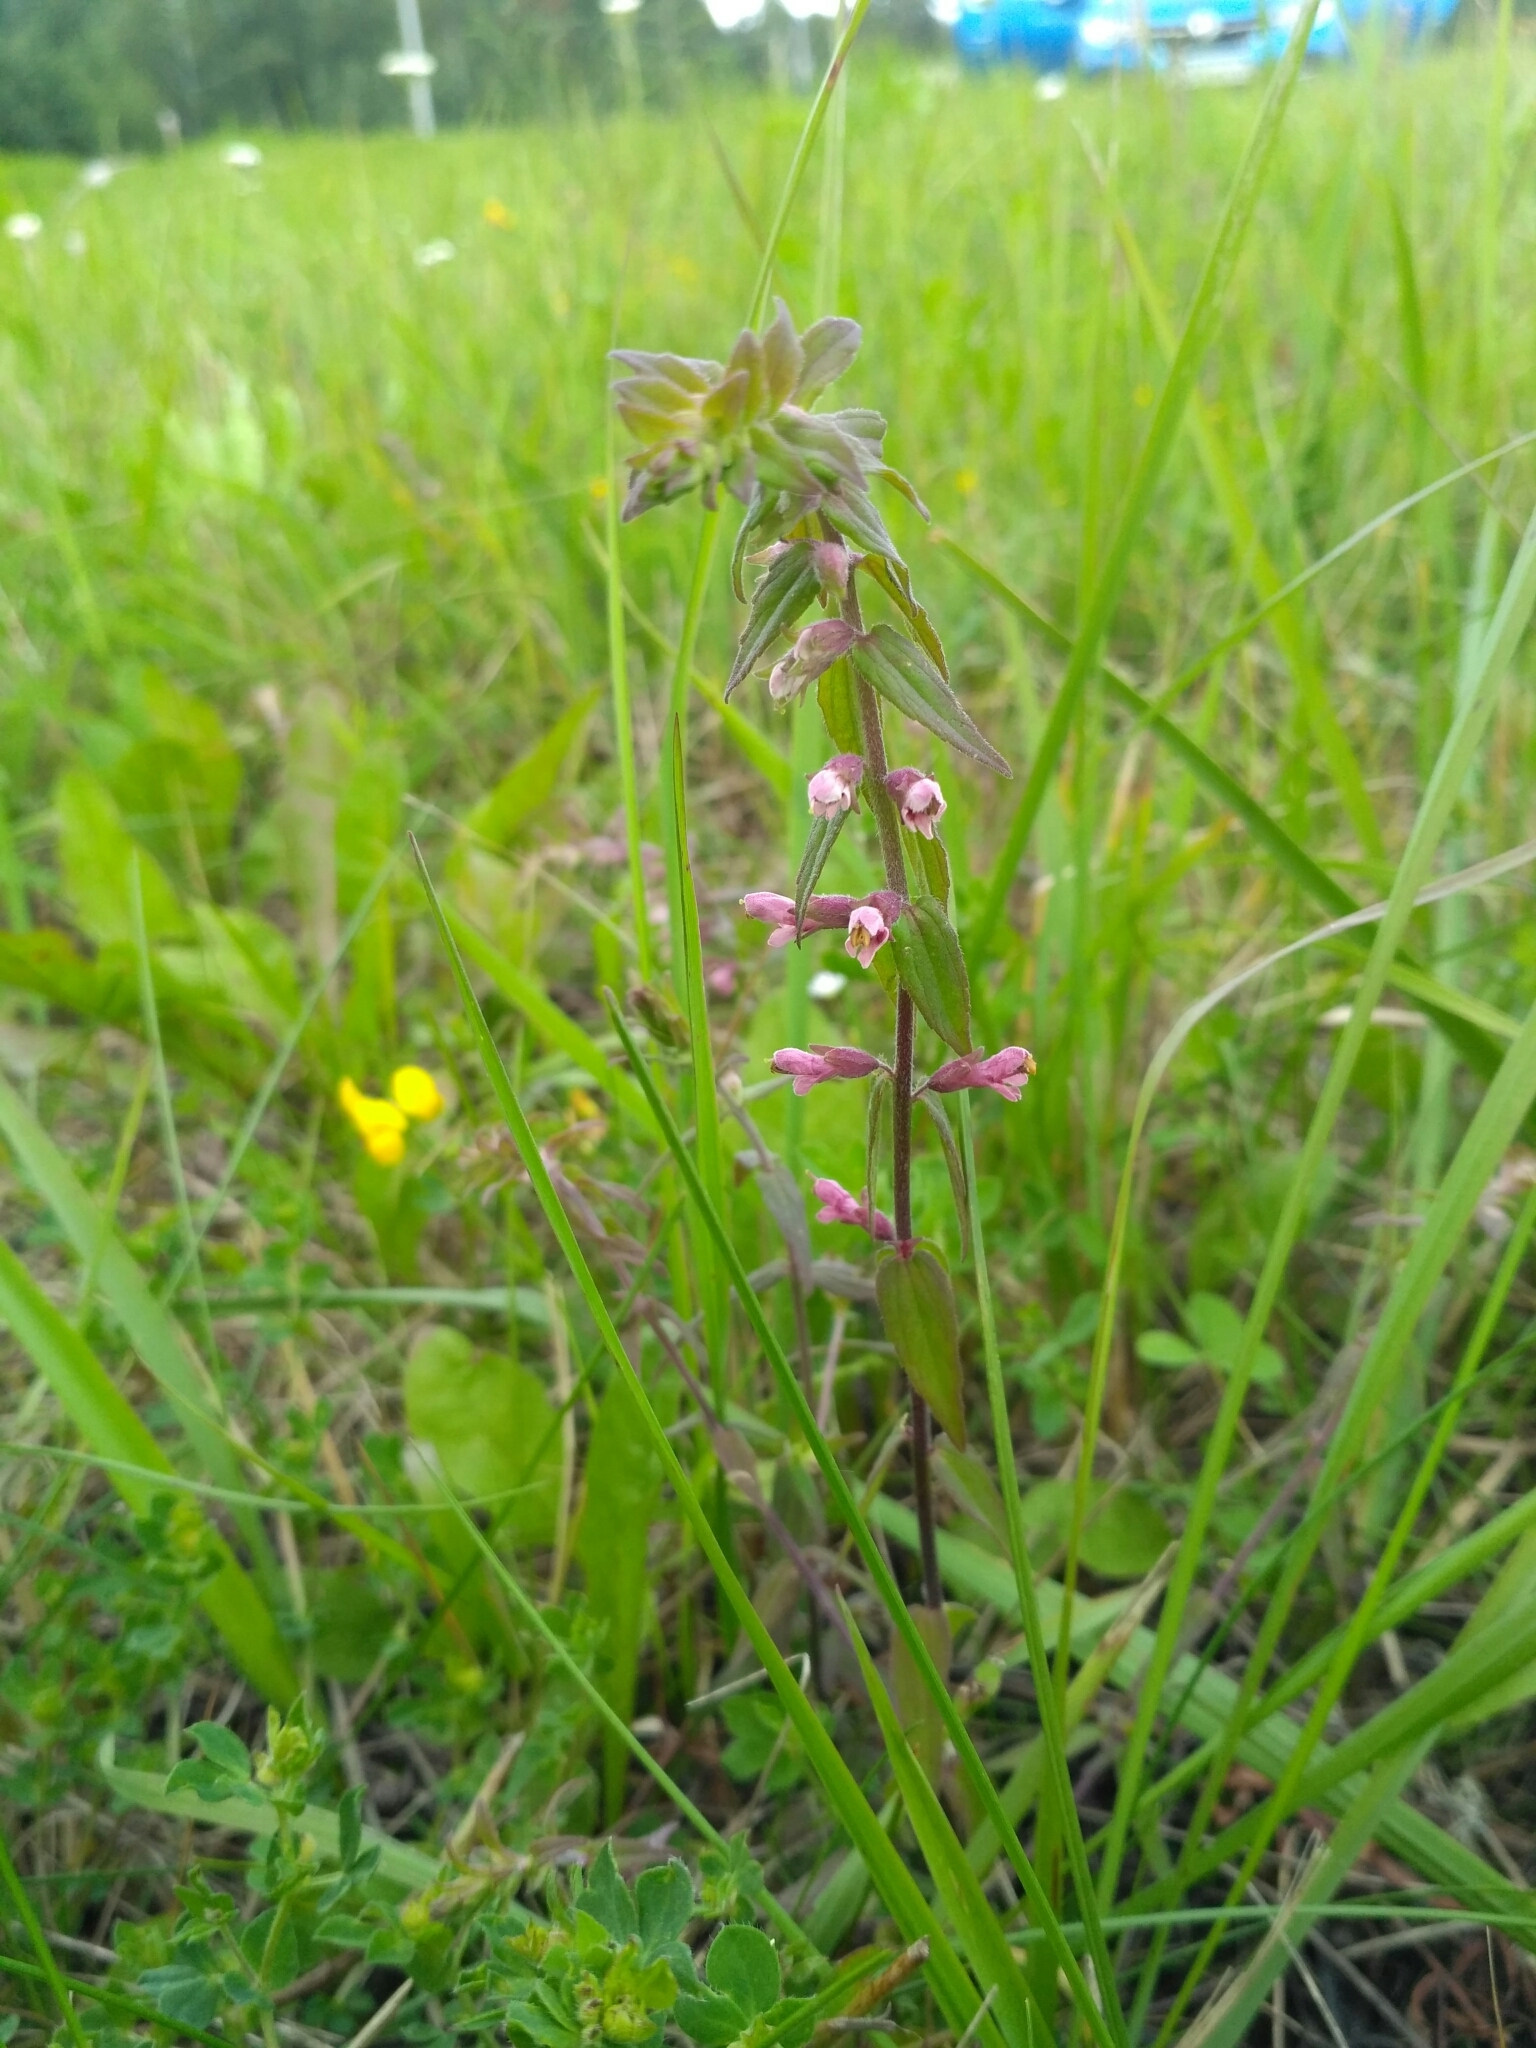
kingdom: Plantae
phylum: Tracheophyta
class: Magnoliopsida
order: Lamiales
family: Orobanchaceae
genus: Odontites
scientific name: Odontites vulgaris
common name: Broomrape
